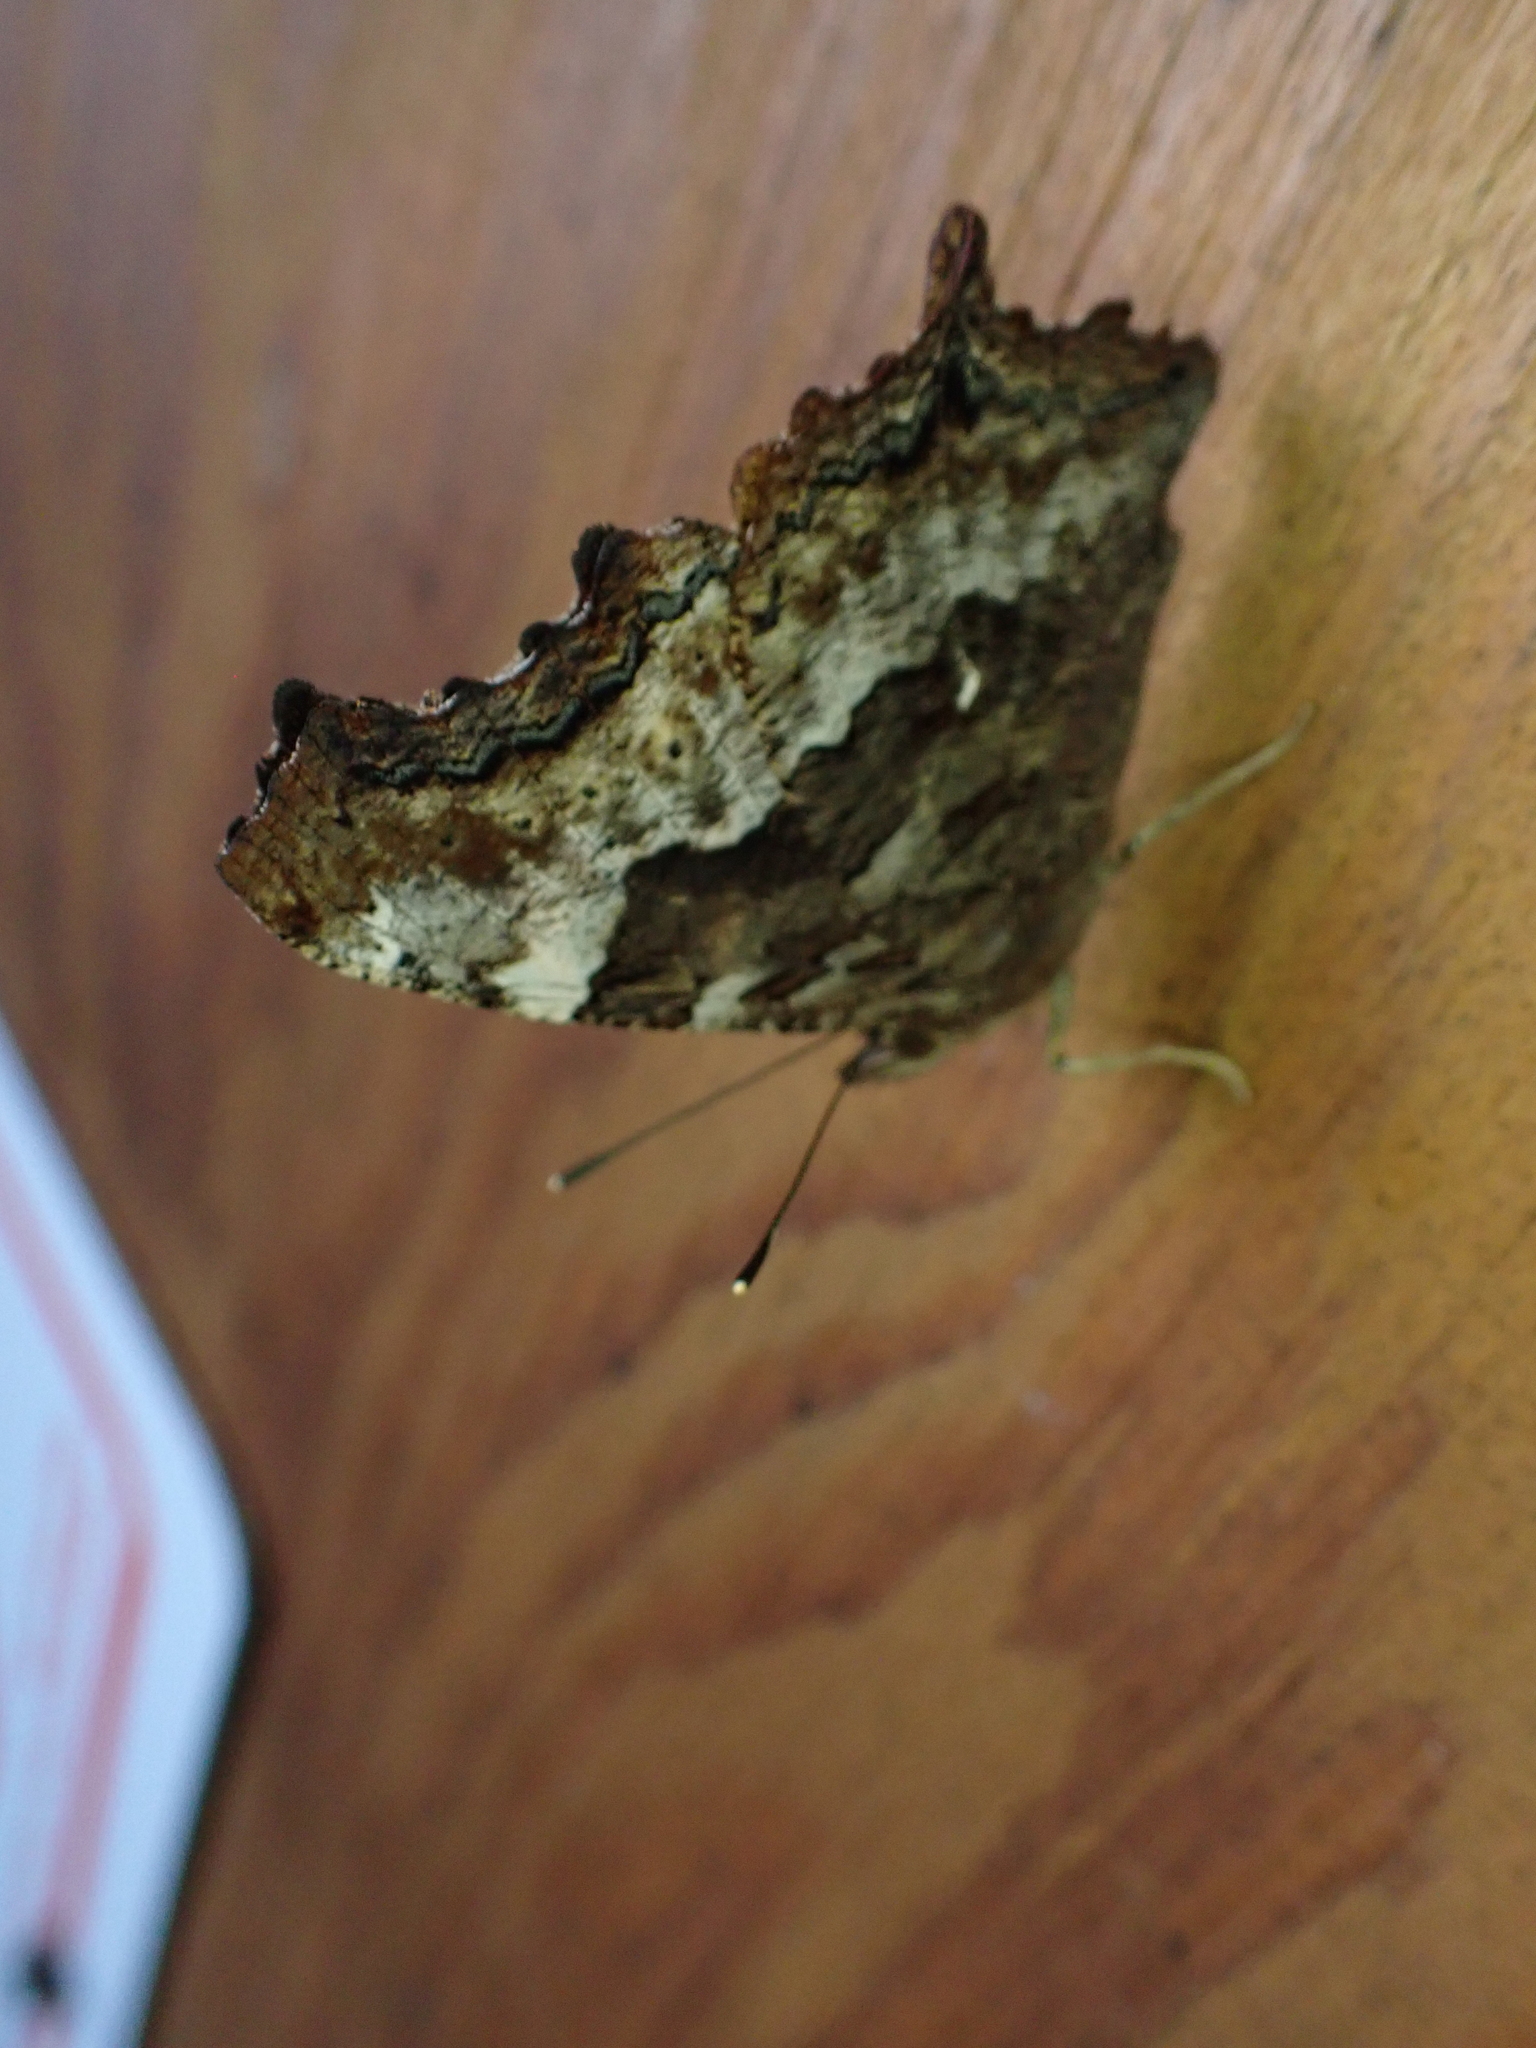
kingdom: Animalia
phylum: Arthropoda
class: Insecta
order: Lepidoptera
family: Nymphalidae
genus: Polygonia
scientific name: Polygonia vaualbum
